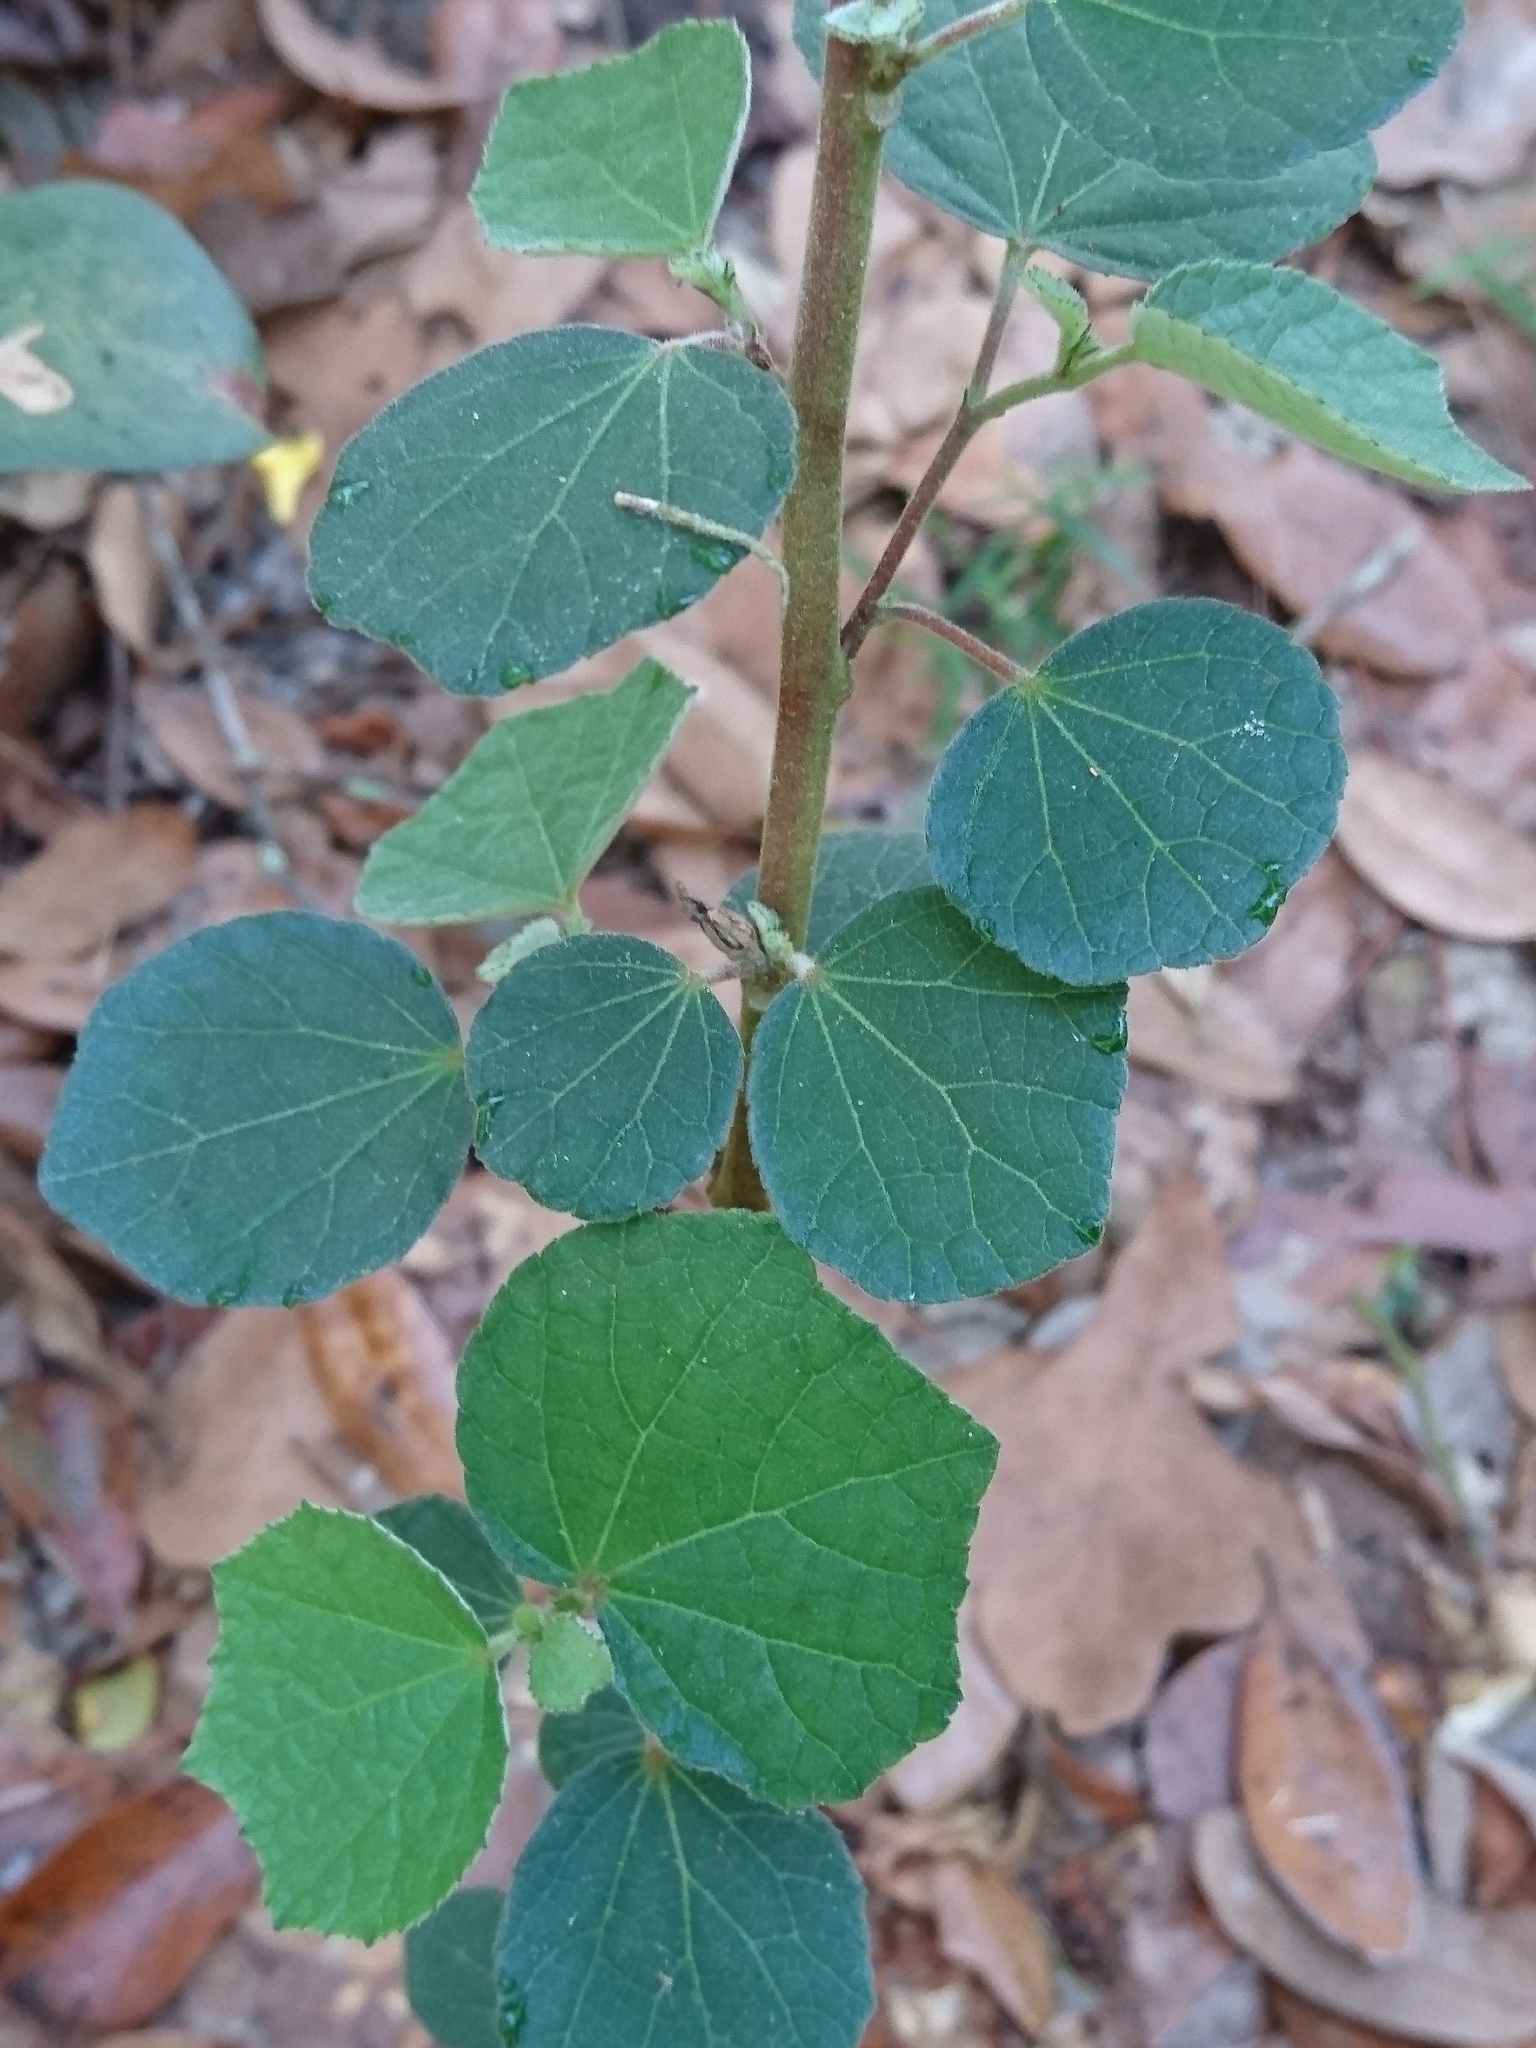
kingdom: Plantae
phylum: Tracheophyta
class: Magnoliopsida
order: Malvales
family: Malvaceae
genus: Urena
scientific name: Urena lobata
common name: Caesarweed
